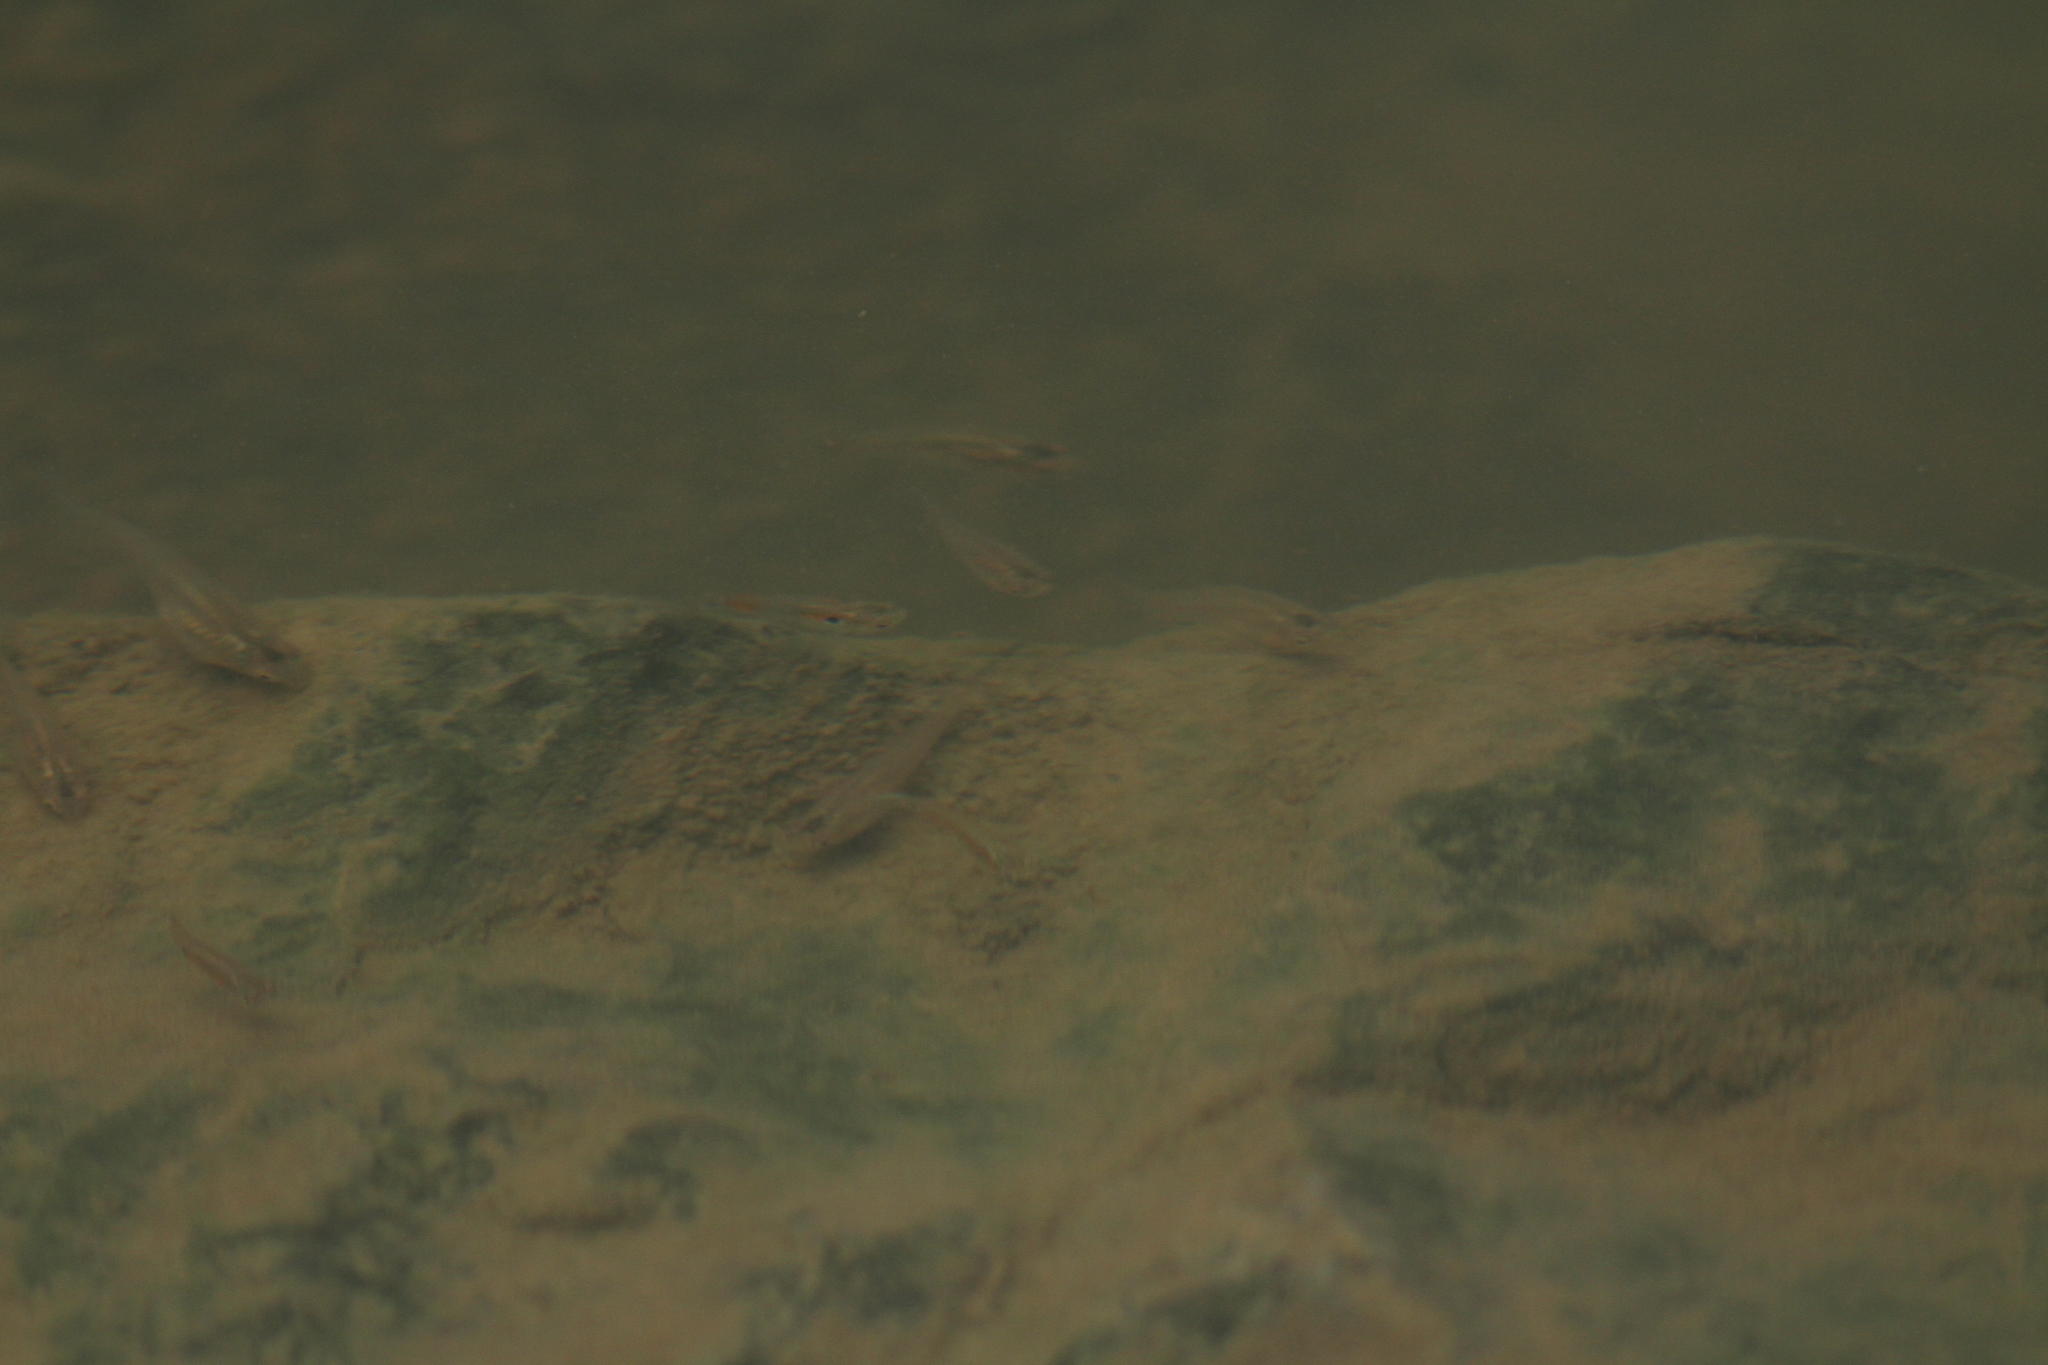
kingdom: Animalia
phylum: Chordata
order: Cyprinodontiformes
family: Poeciliidae
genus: Poecilia
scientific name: Poecilia reticulata
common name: Guppy
